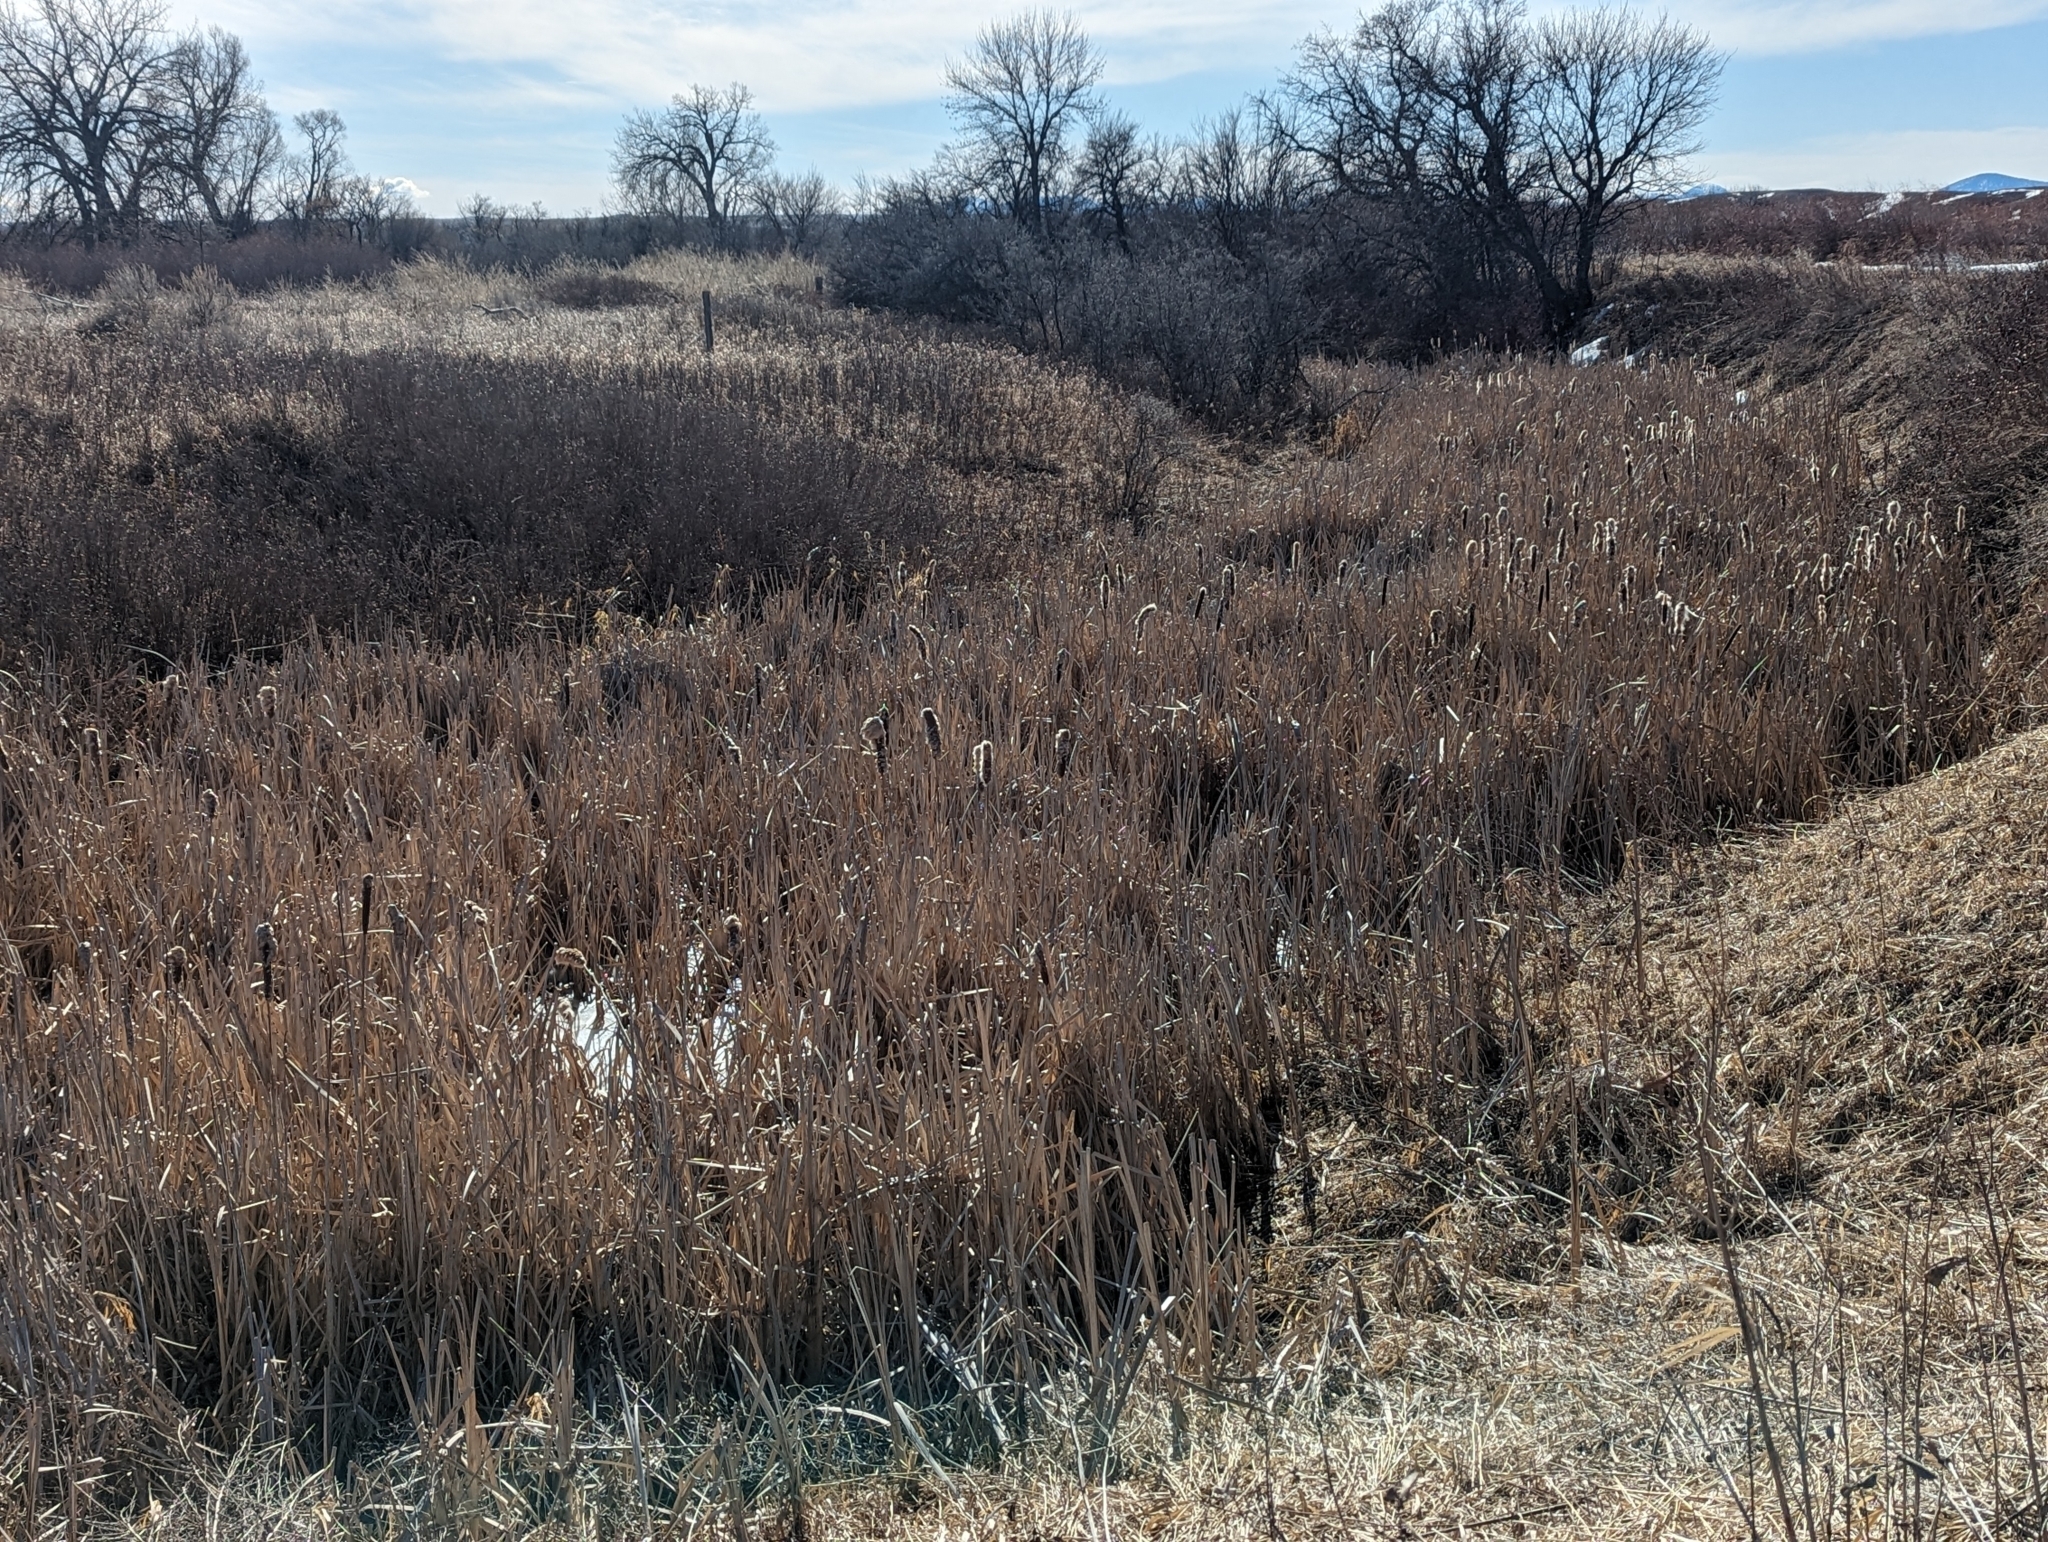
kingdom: Plantae
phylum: Tracheophyta
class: Liliopsida
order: Poales
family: Typhaceae
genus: Typha
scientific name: Typha latifolia
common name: Broadleaf cattail
